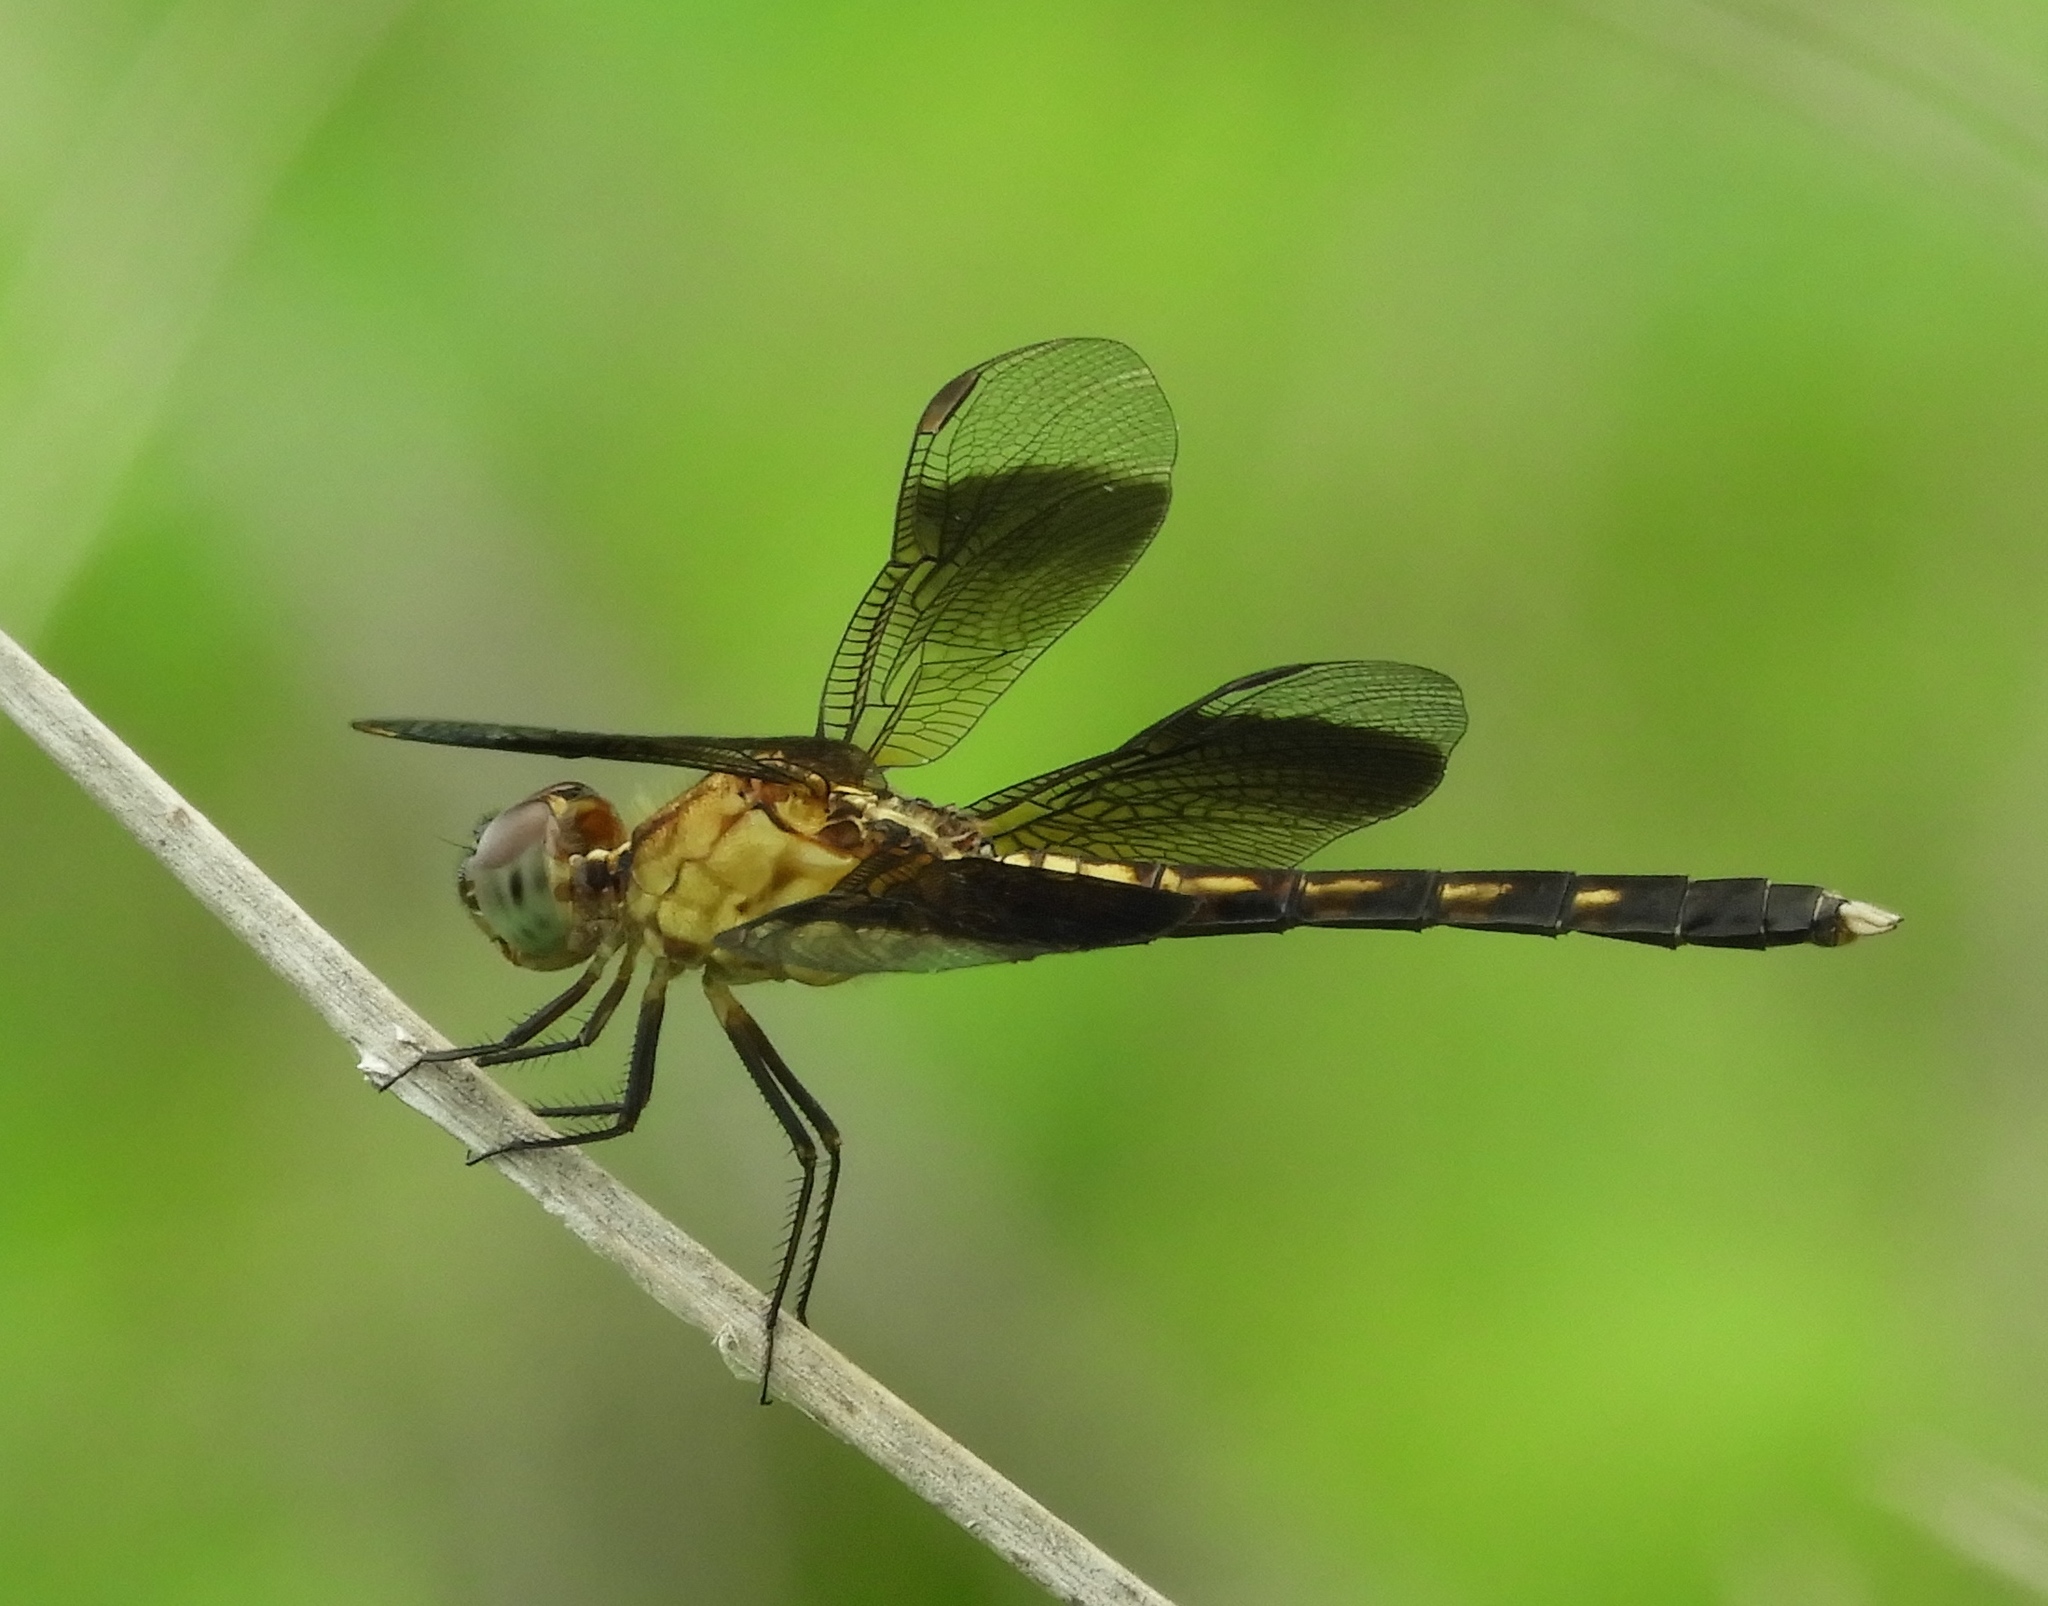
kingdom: Animalia
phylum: Arthropoda
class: Insecta
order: Odonata
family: Libellulidae
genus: Erythrodiplax
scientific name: Erythrodiplax funerea
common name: Black-winged dragonlet
